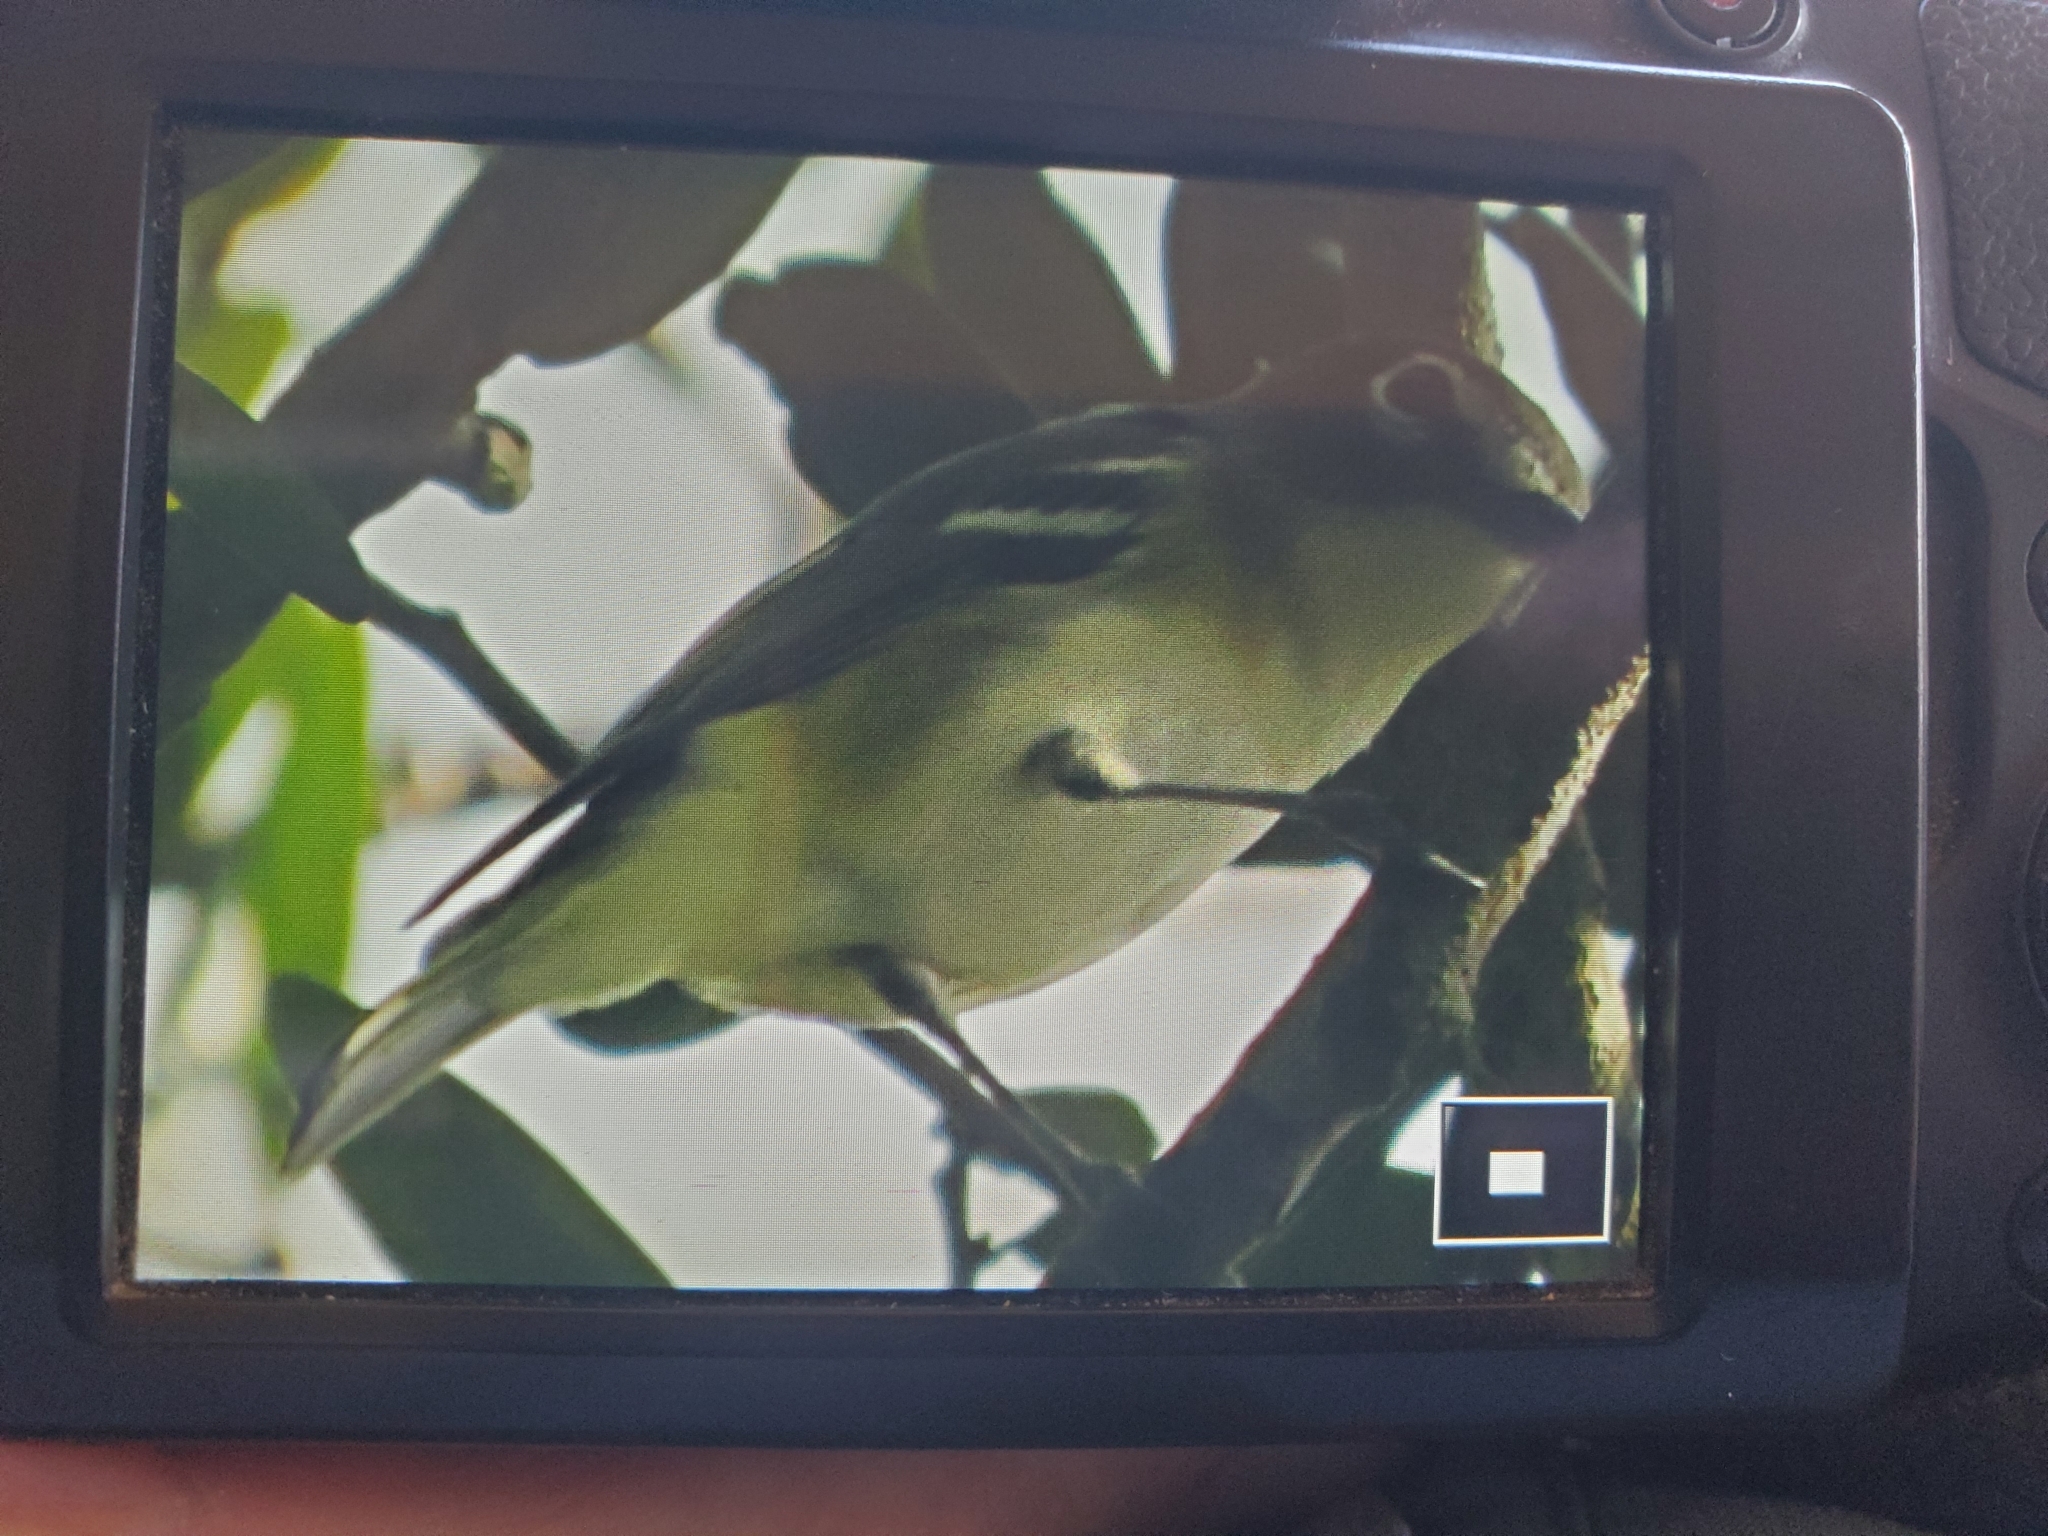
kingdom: Animalia
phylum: Chordata
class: Aves
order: Passeriformes
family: Vireonidae
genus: Vireo
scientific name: Vireo solitarius
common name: Blue-headed vireo
